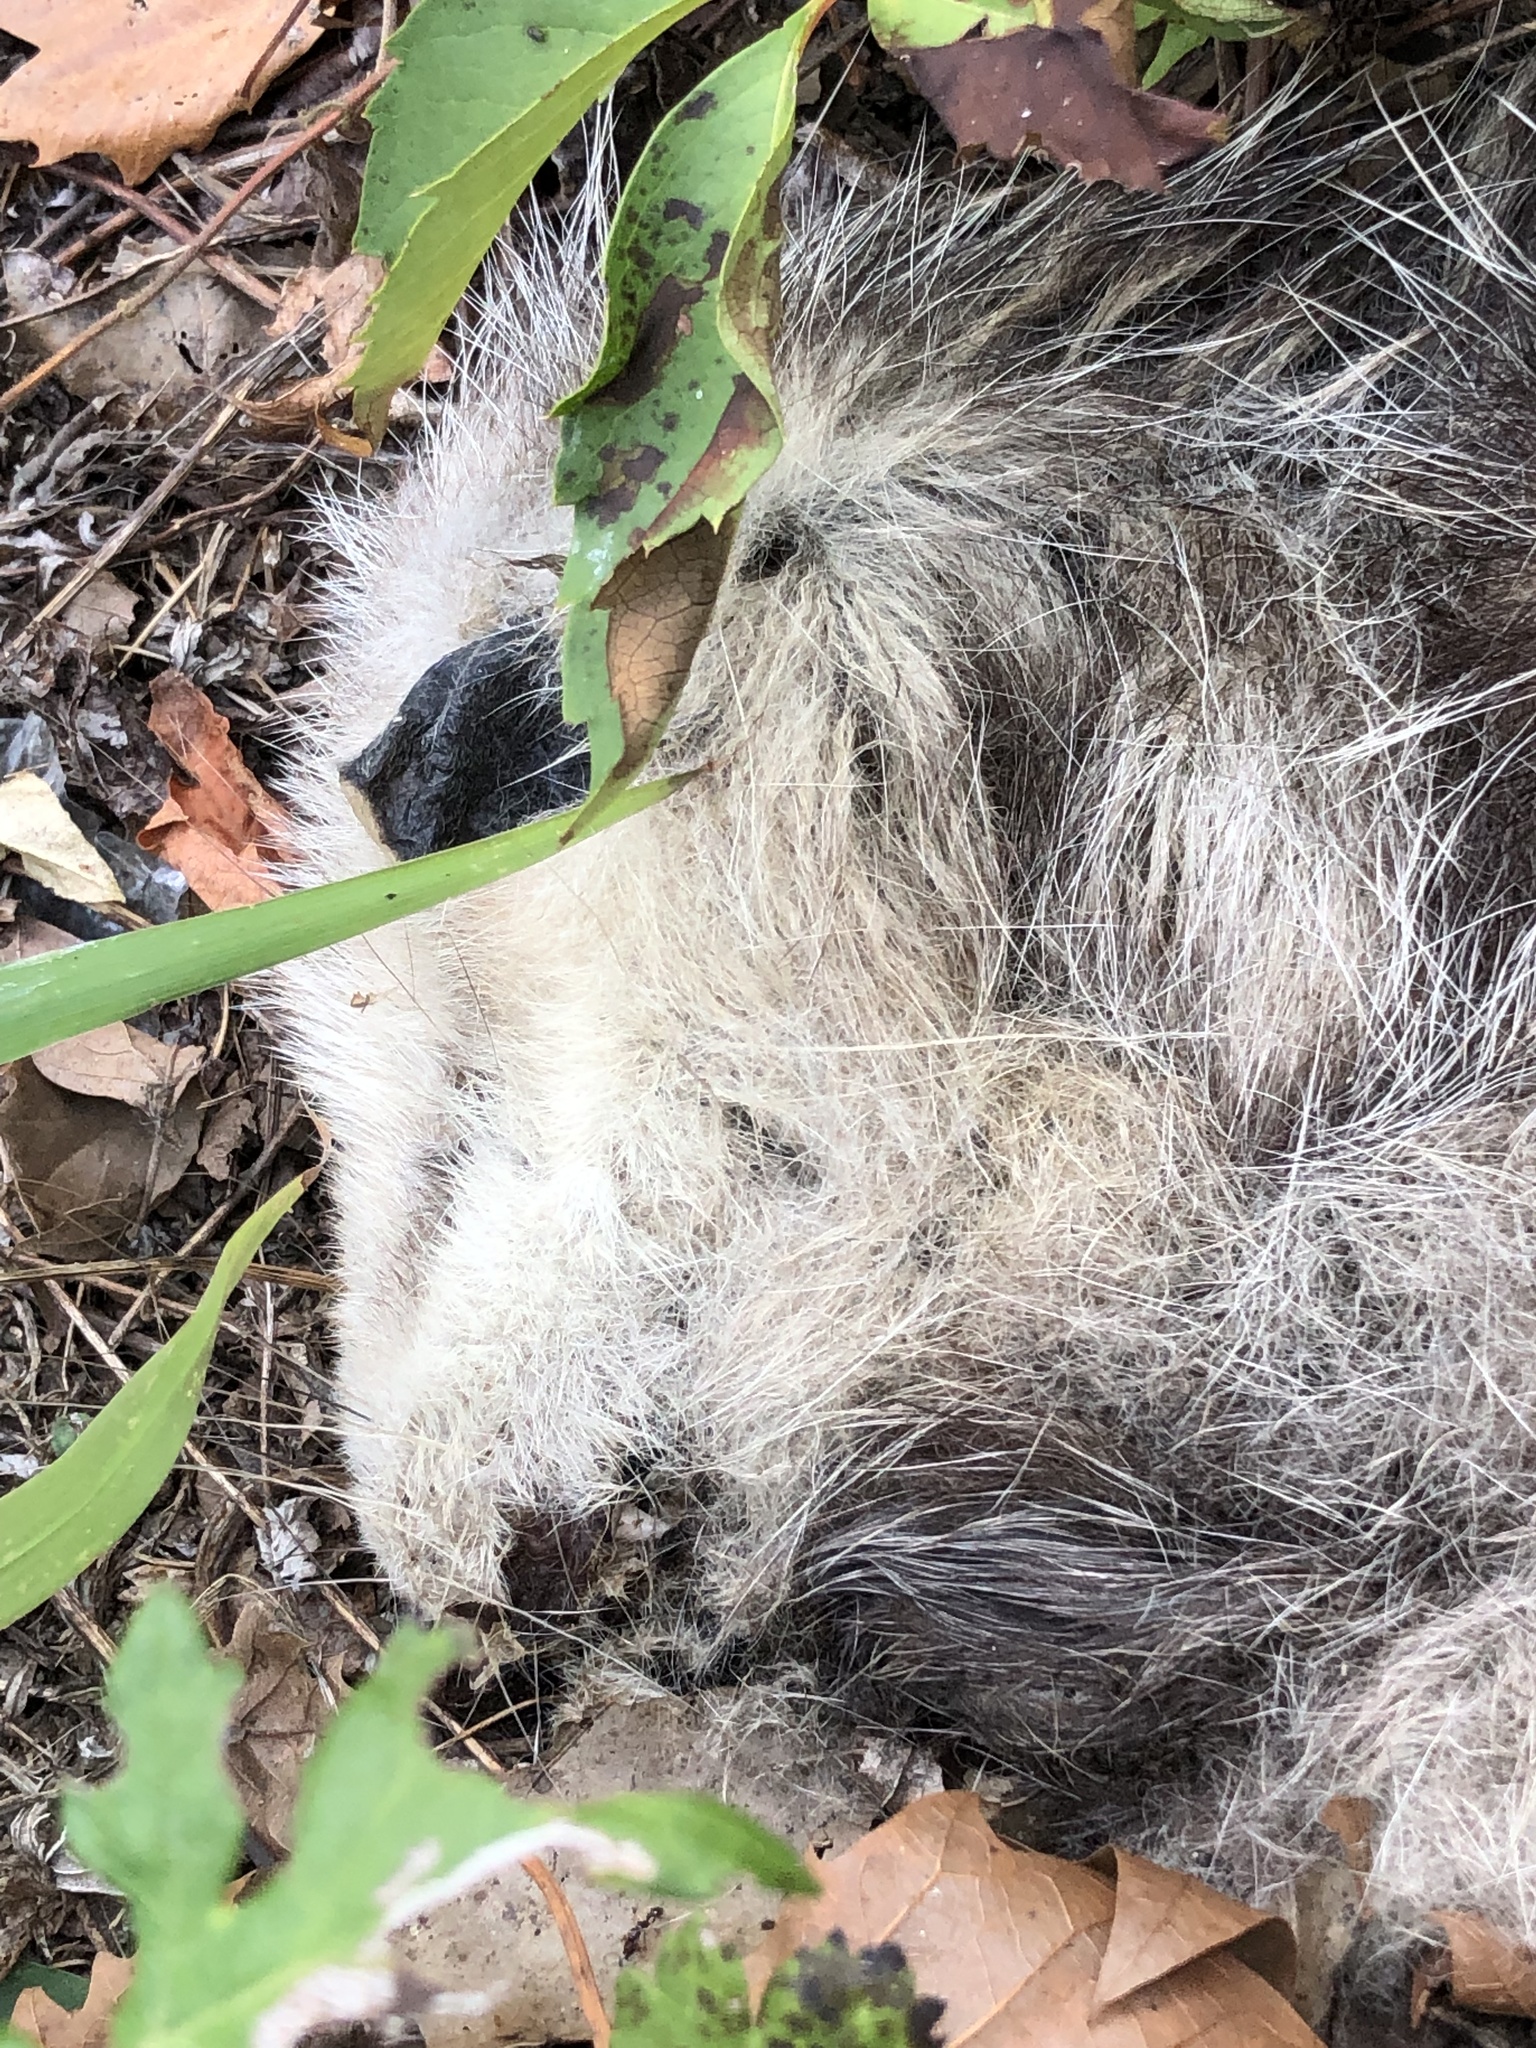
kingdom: Animalia
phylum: Chordata
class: Mammalia
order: Didelphimorphia
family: Didelphidae
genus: Didelphis
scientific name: Didelphis virginiana
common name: Virginia opossum
